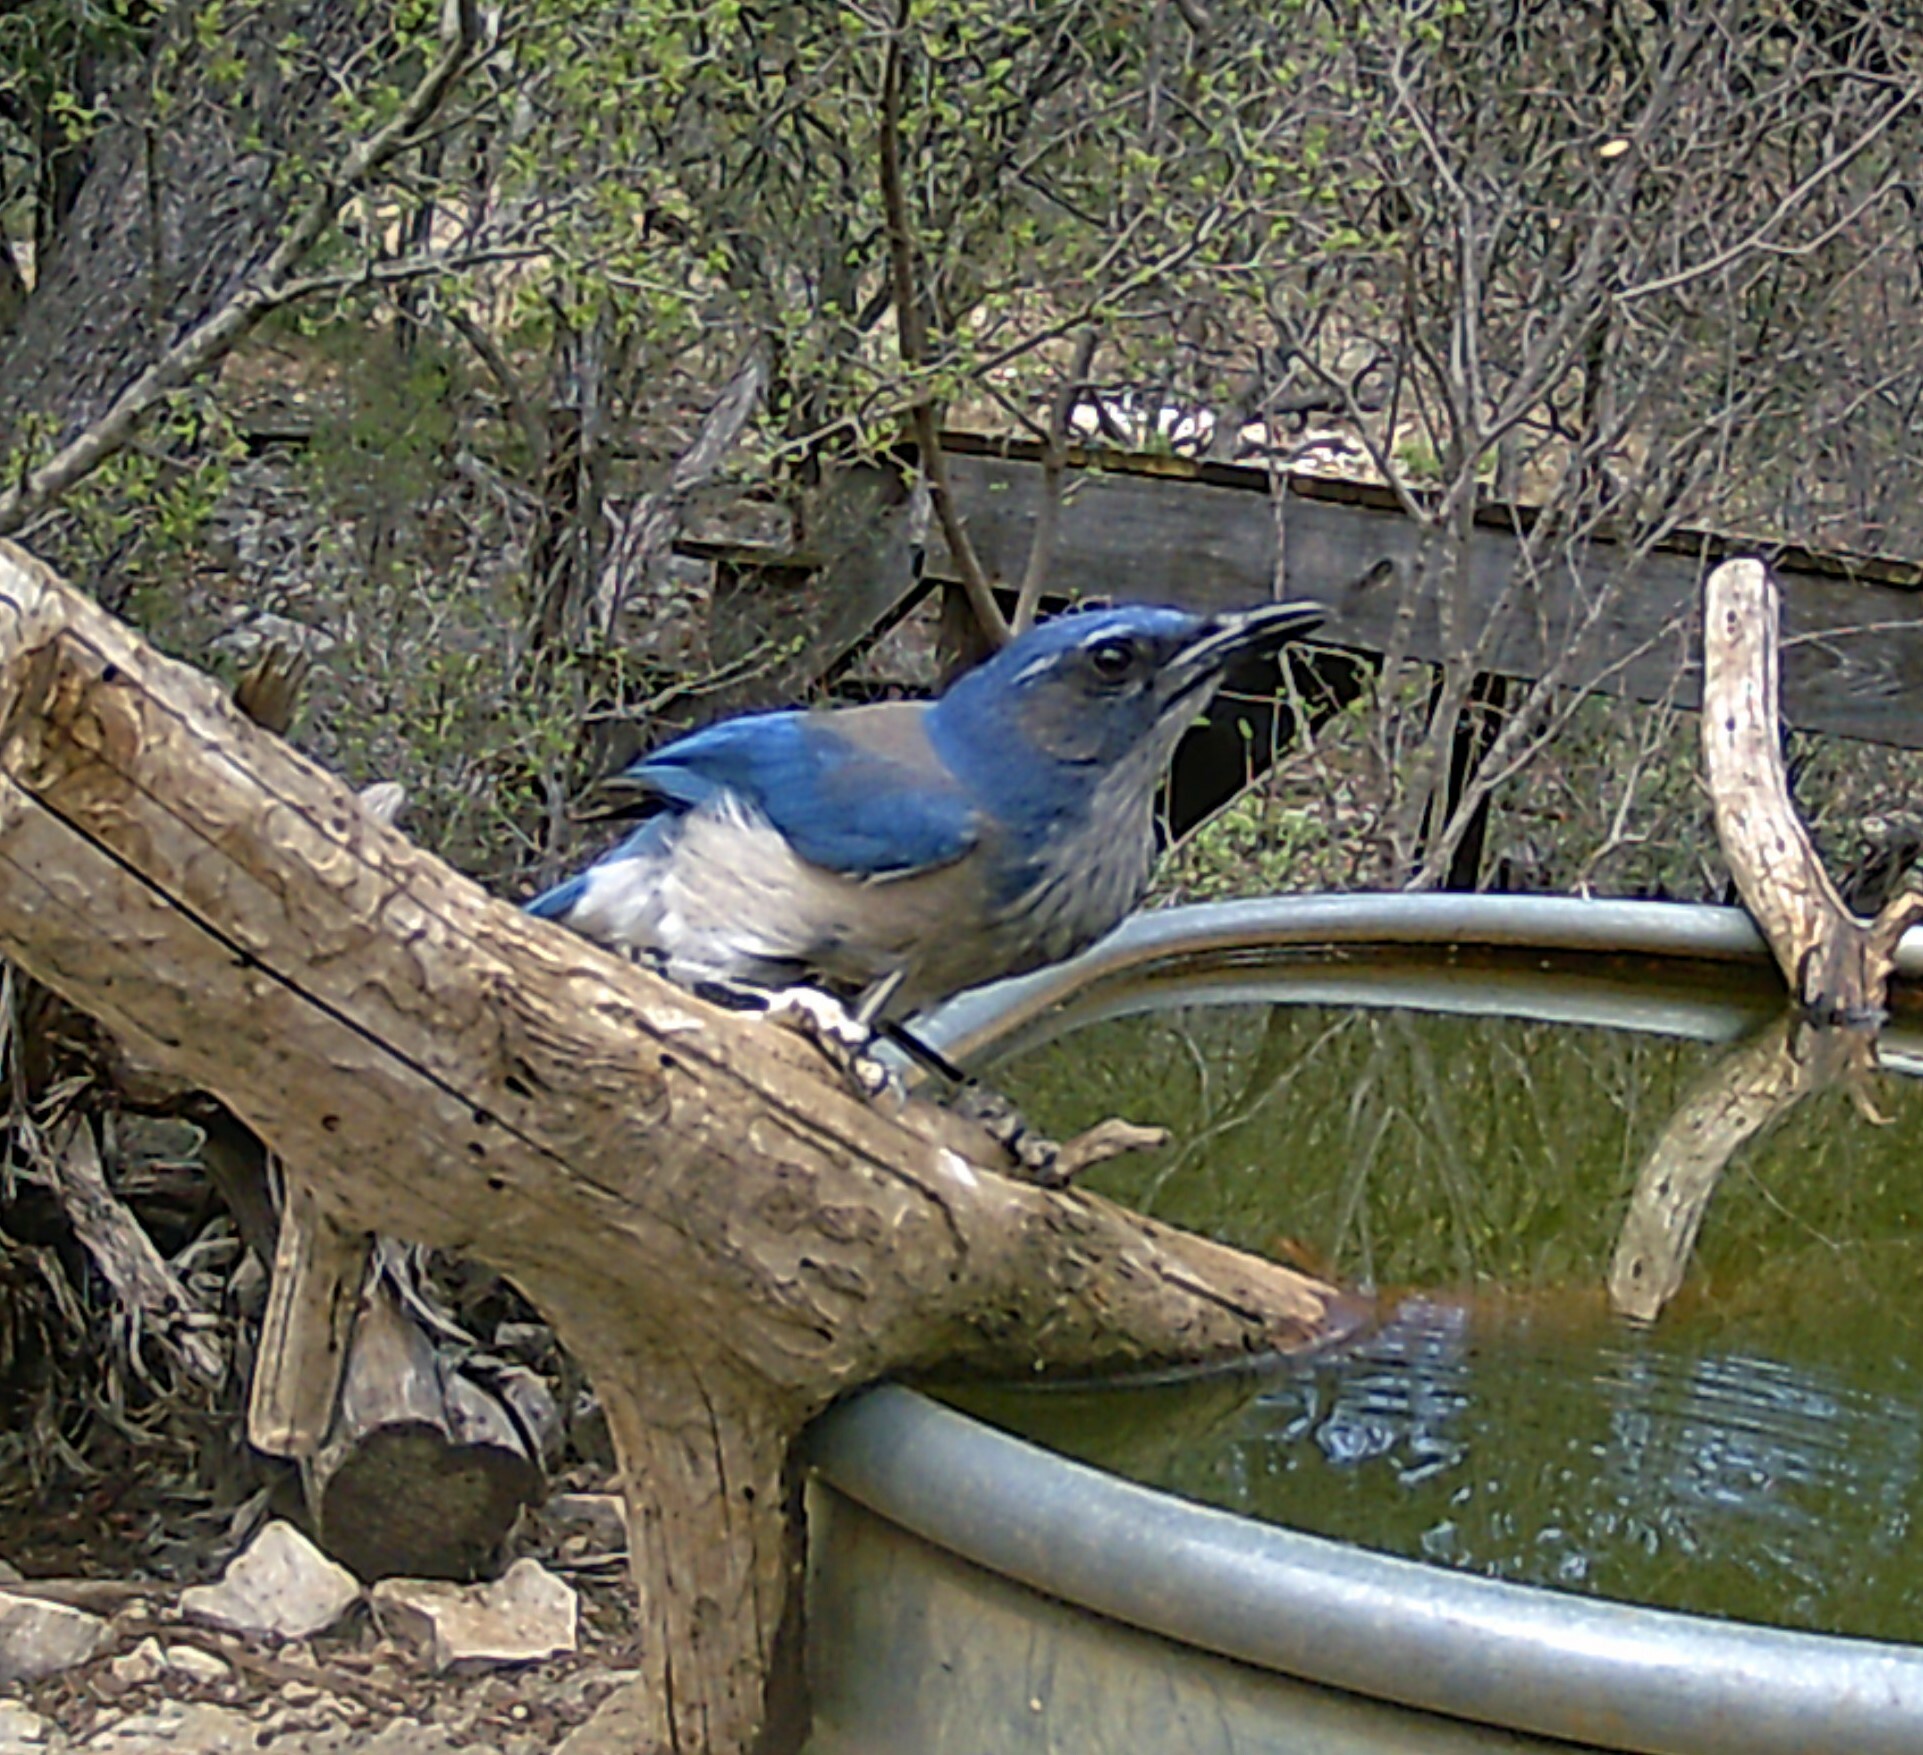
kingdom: Animalia
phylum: Chordata
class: Aves
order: Passeriformes
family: Corvidae
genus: Aphelocoma
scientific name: Aphelocoma woodhouseii
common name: Woodhouse's scrub-jay
